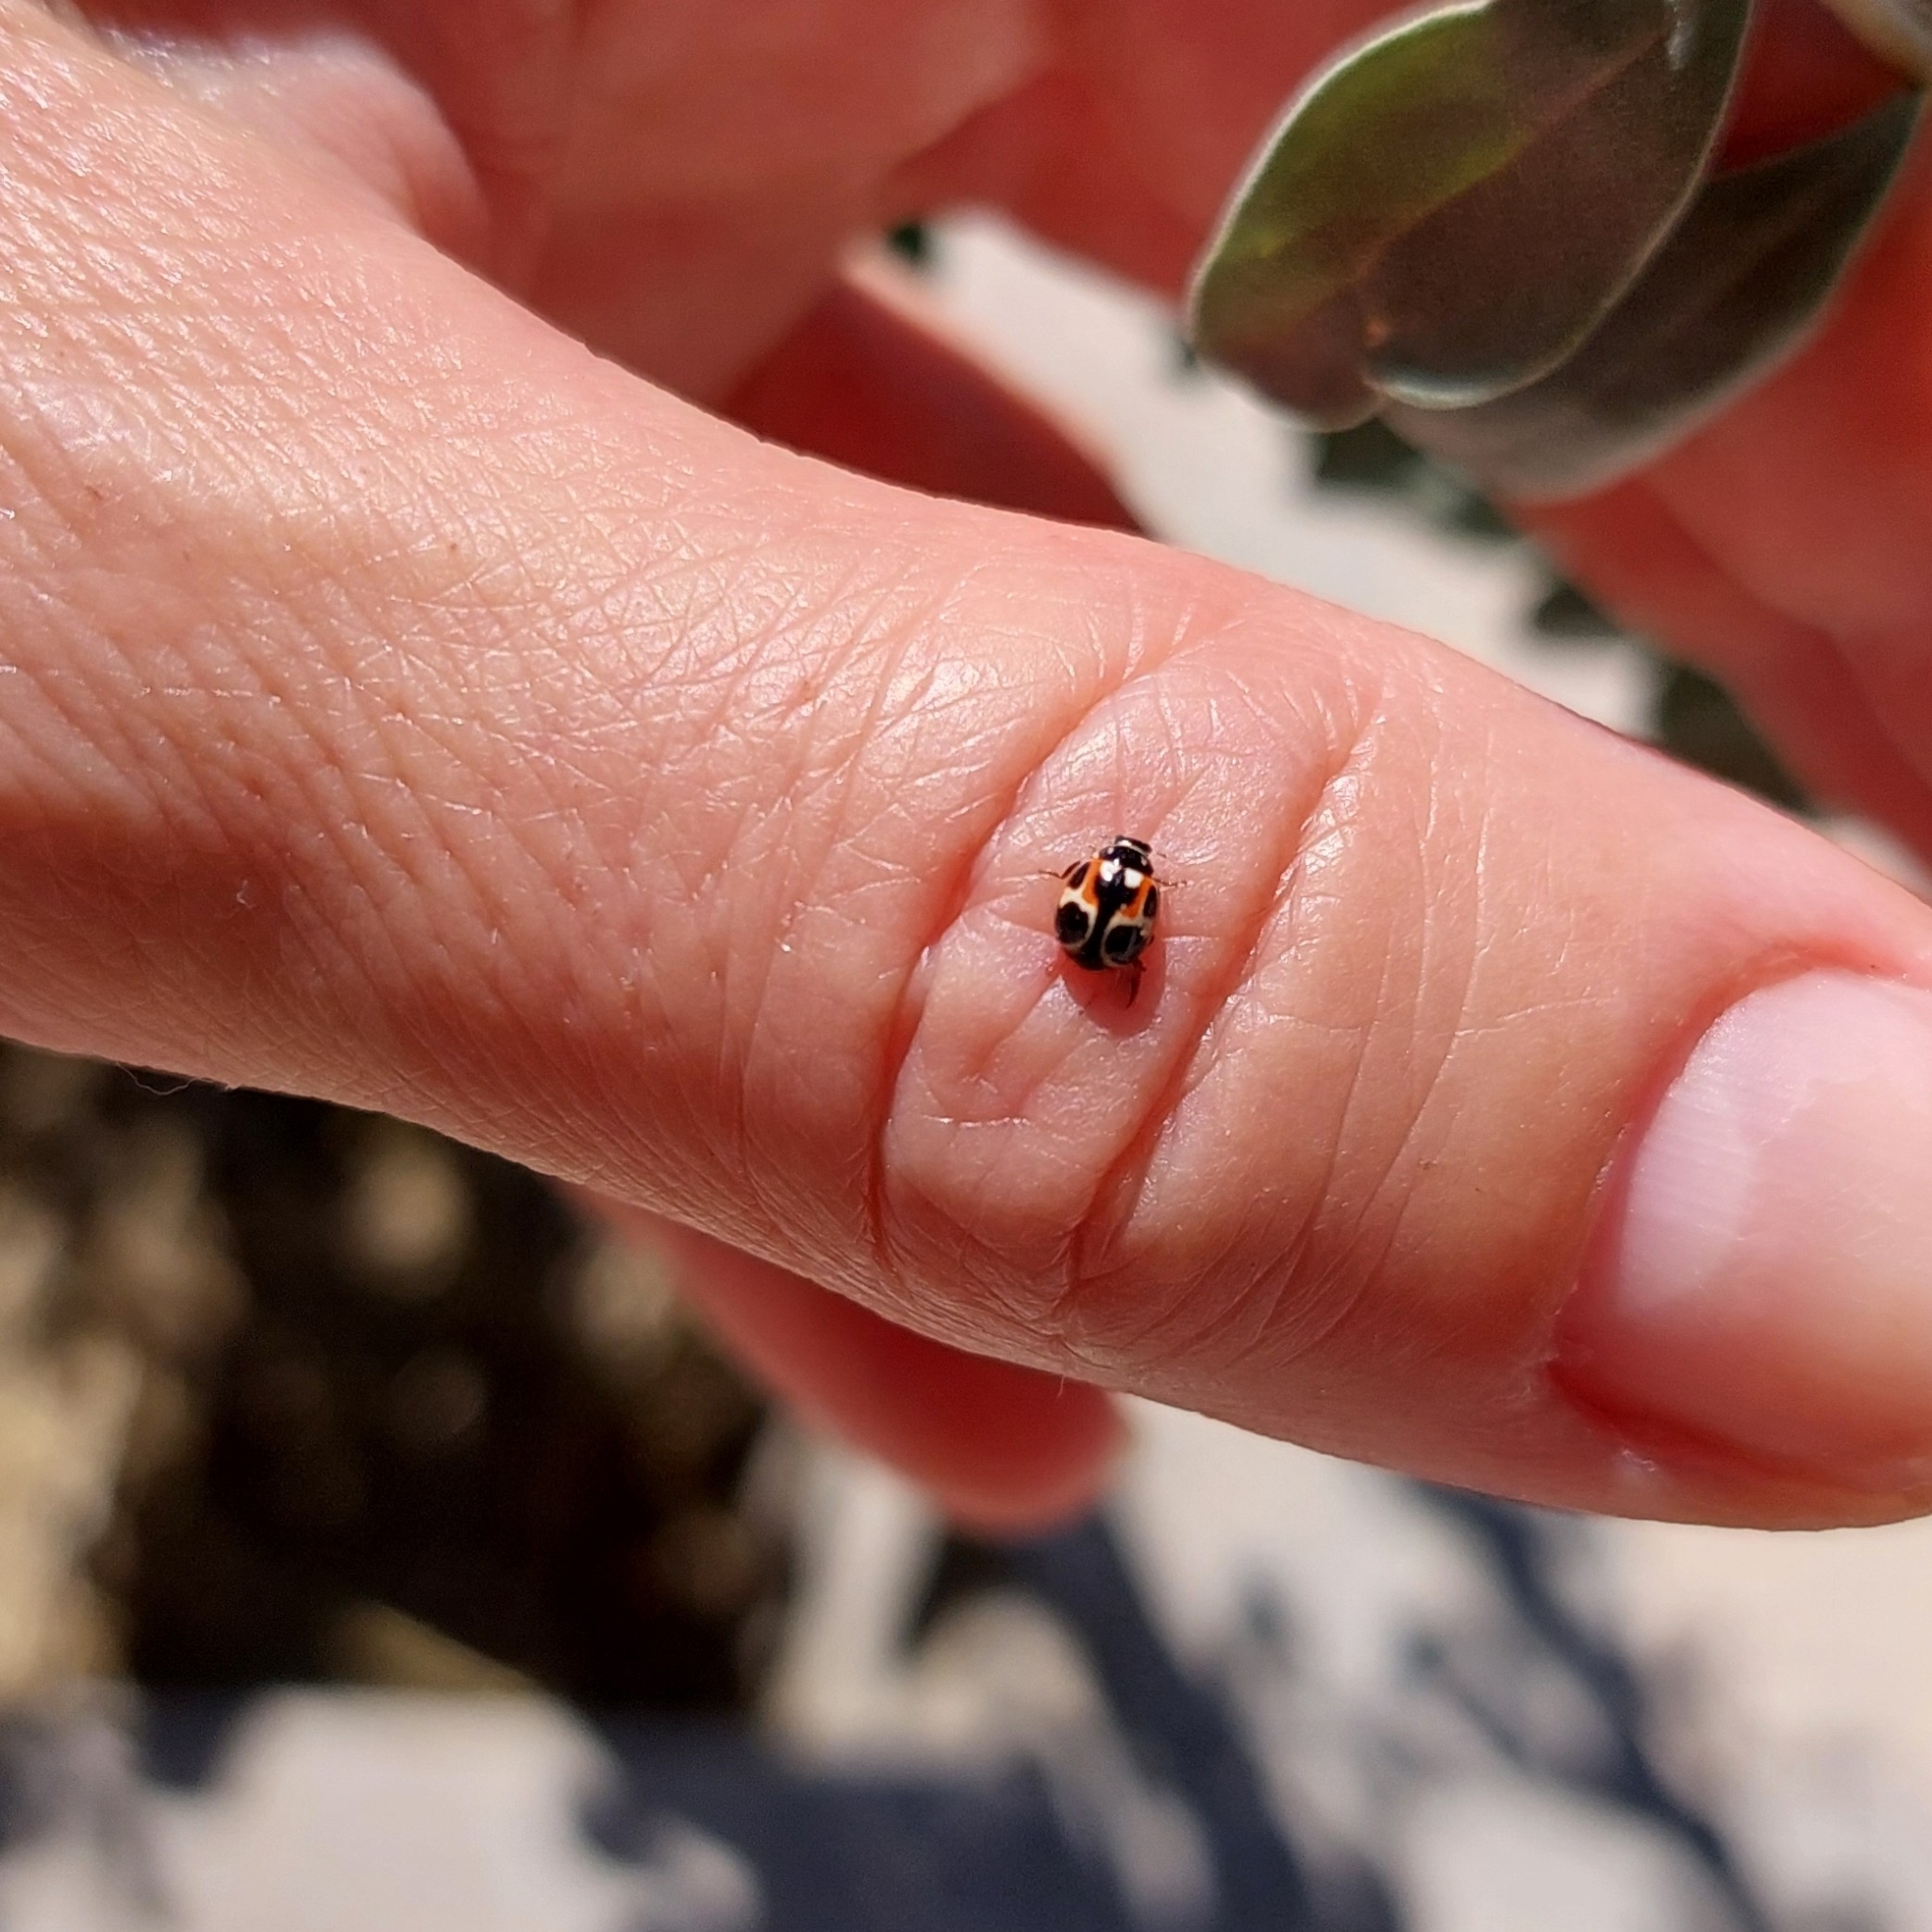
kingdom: Animalia
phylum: Arthropoda
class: Insecta
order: Coleoptera
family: Coccinellidae
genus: Cycloneda
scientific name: Cycloneda ancoralis
